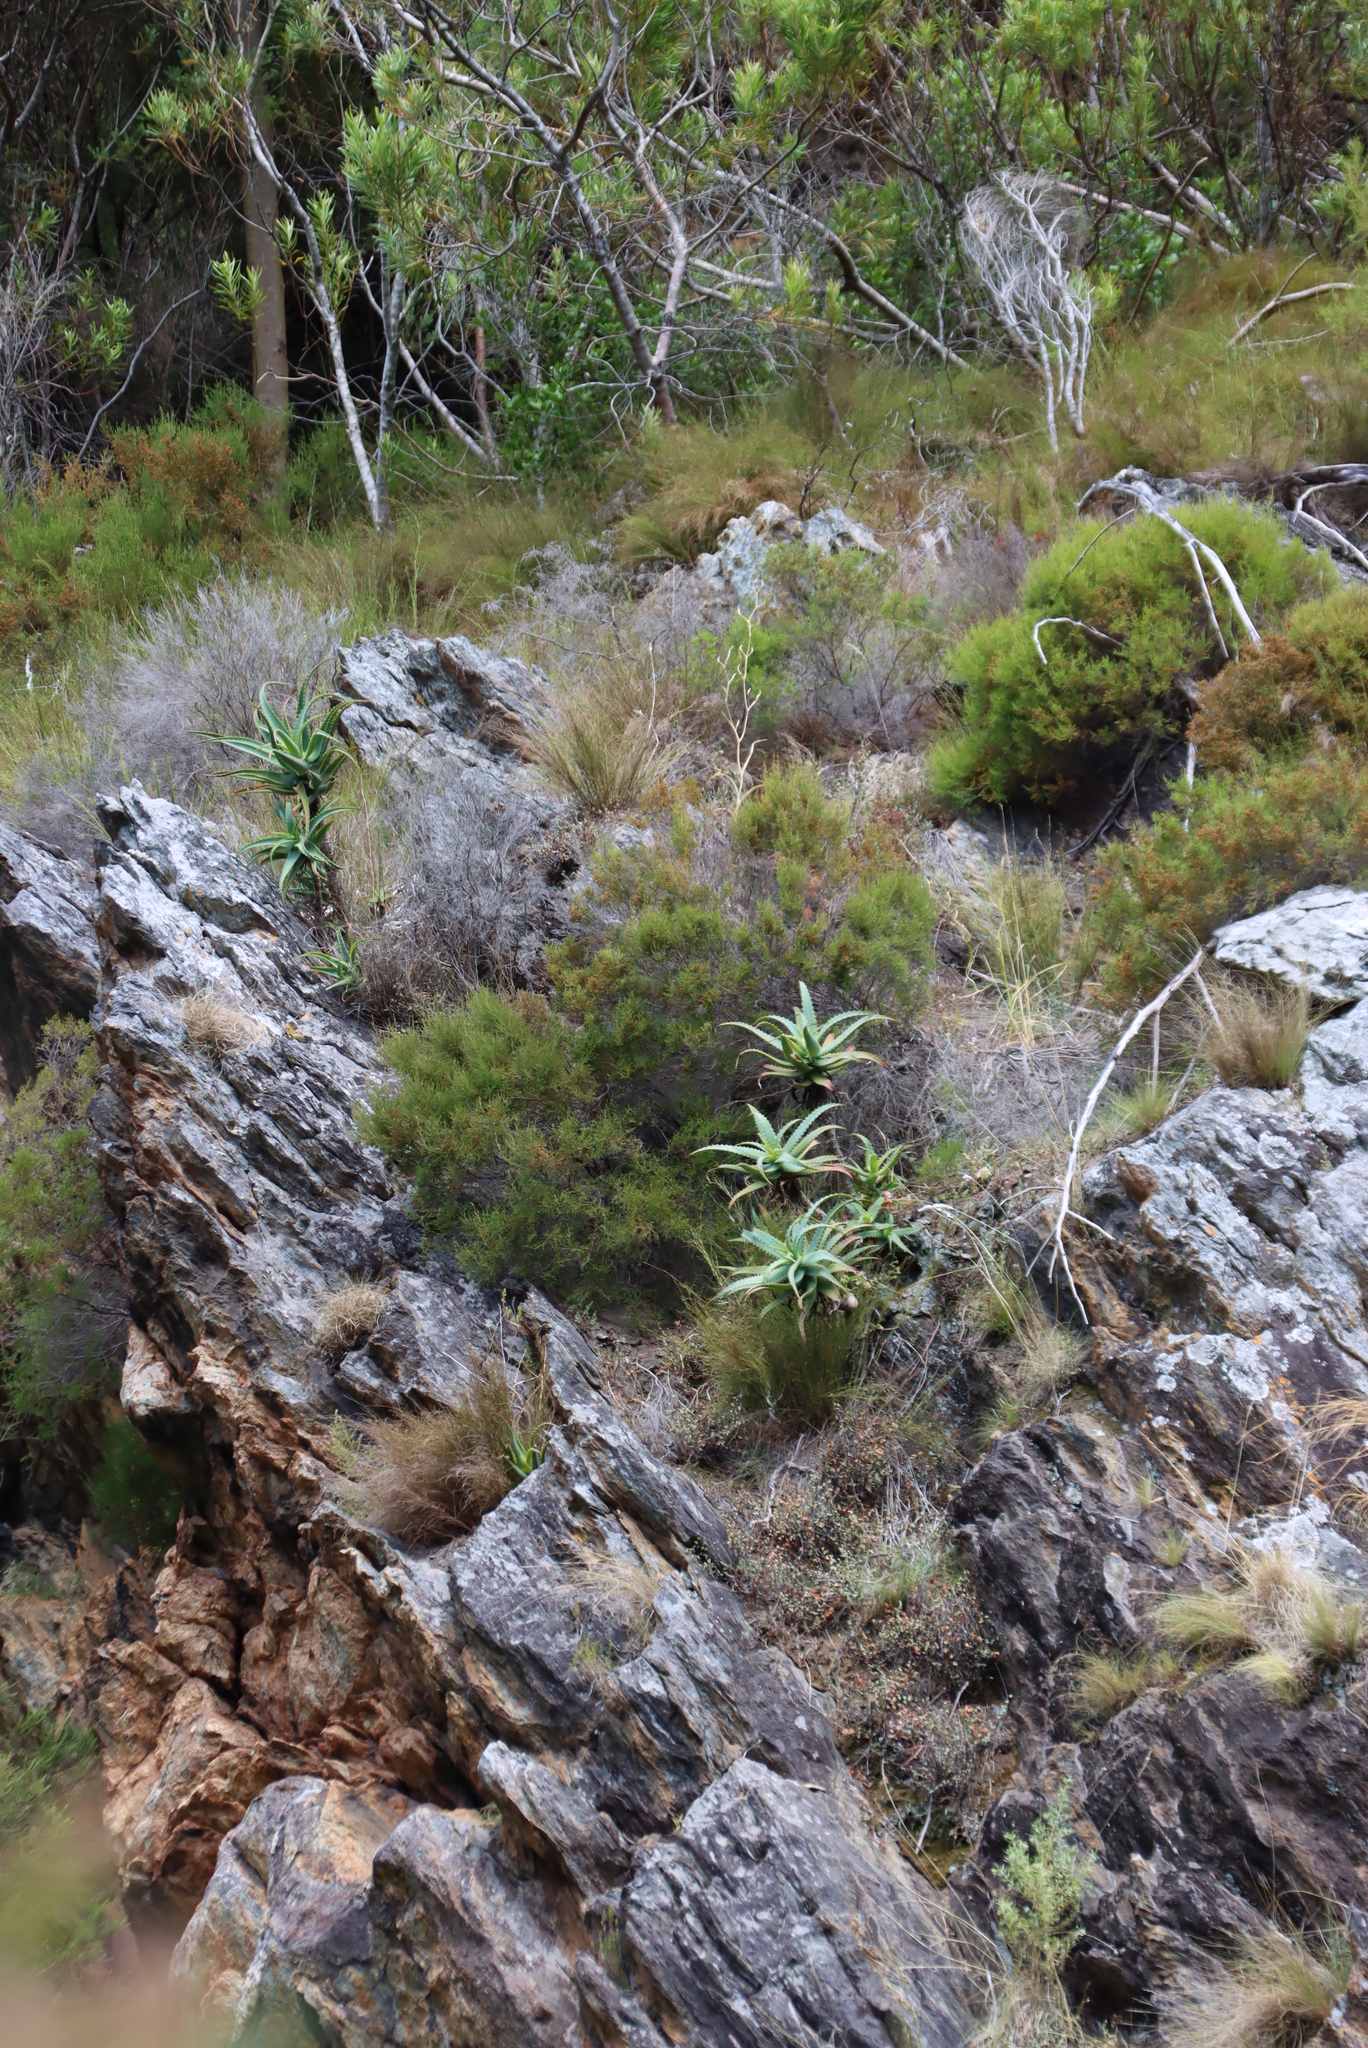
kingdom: Plantae
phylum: Tracheophyta
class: Liliopsida
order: Asparagales
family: Asphodelaceae
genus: Aloe
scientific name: Aloe arborescens
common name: Candelabra aloe
